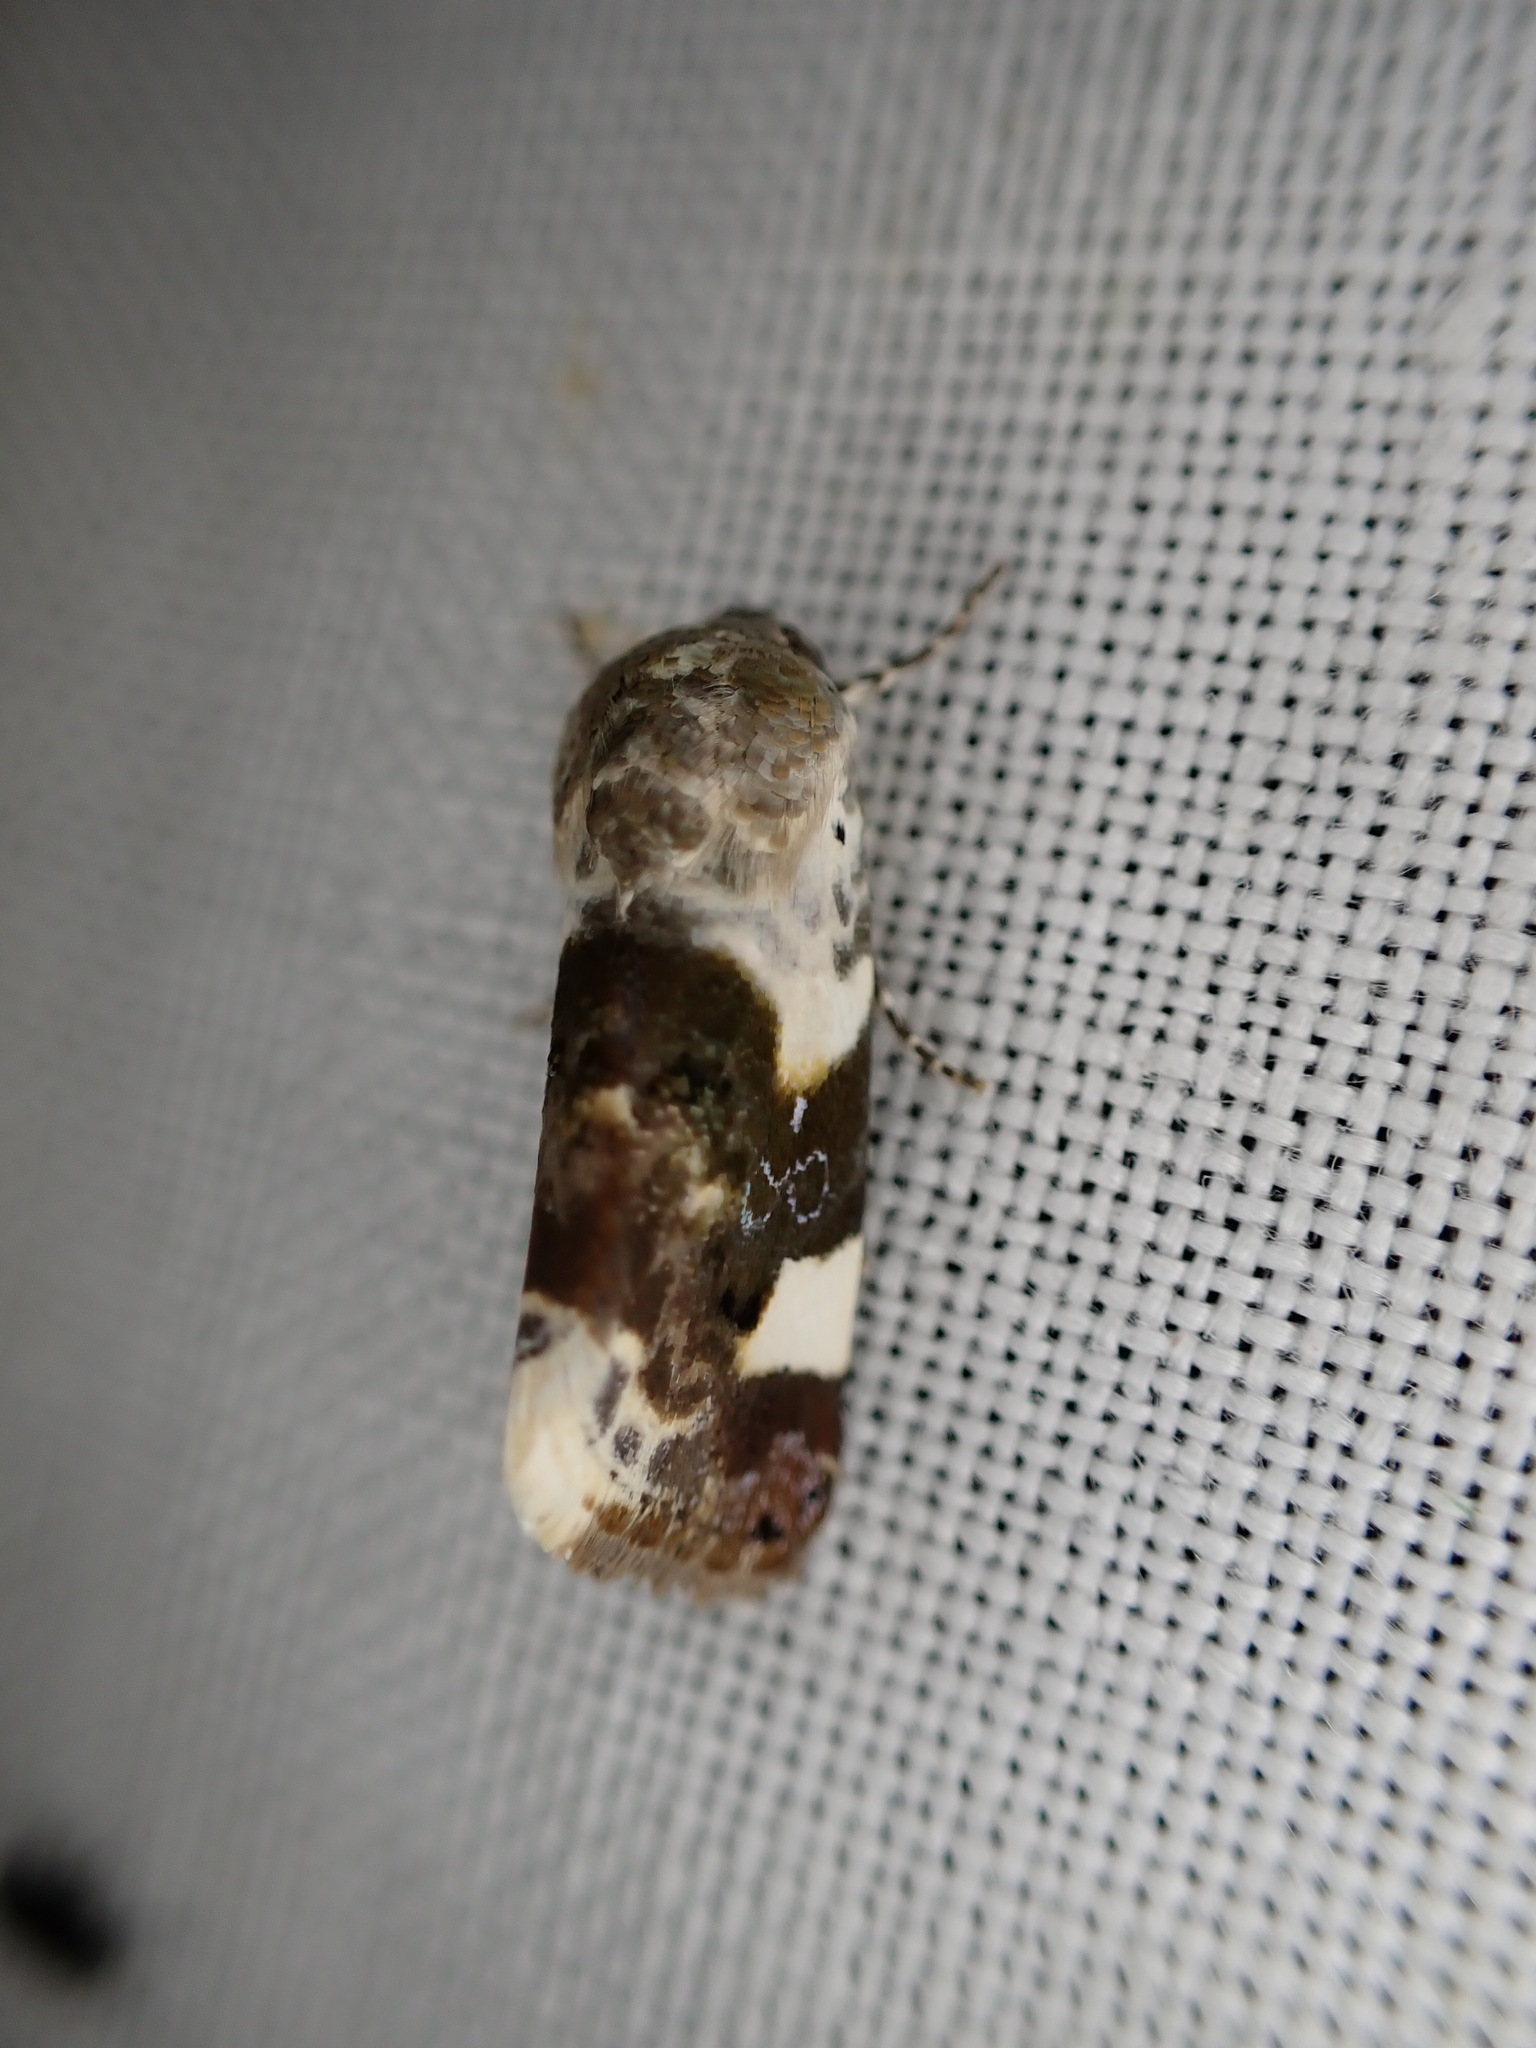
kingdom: Animalia
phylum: Arthropoda
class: Insecta
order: Lepidoptera
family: Noctuidae
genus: Acontia
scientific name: Acontia lucida
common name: Pale shoulder
